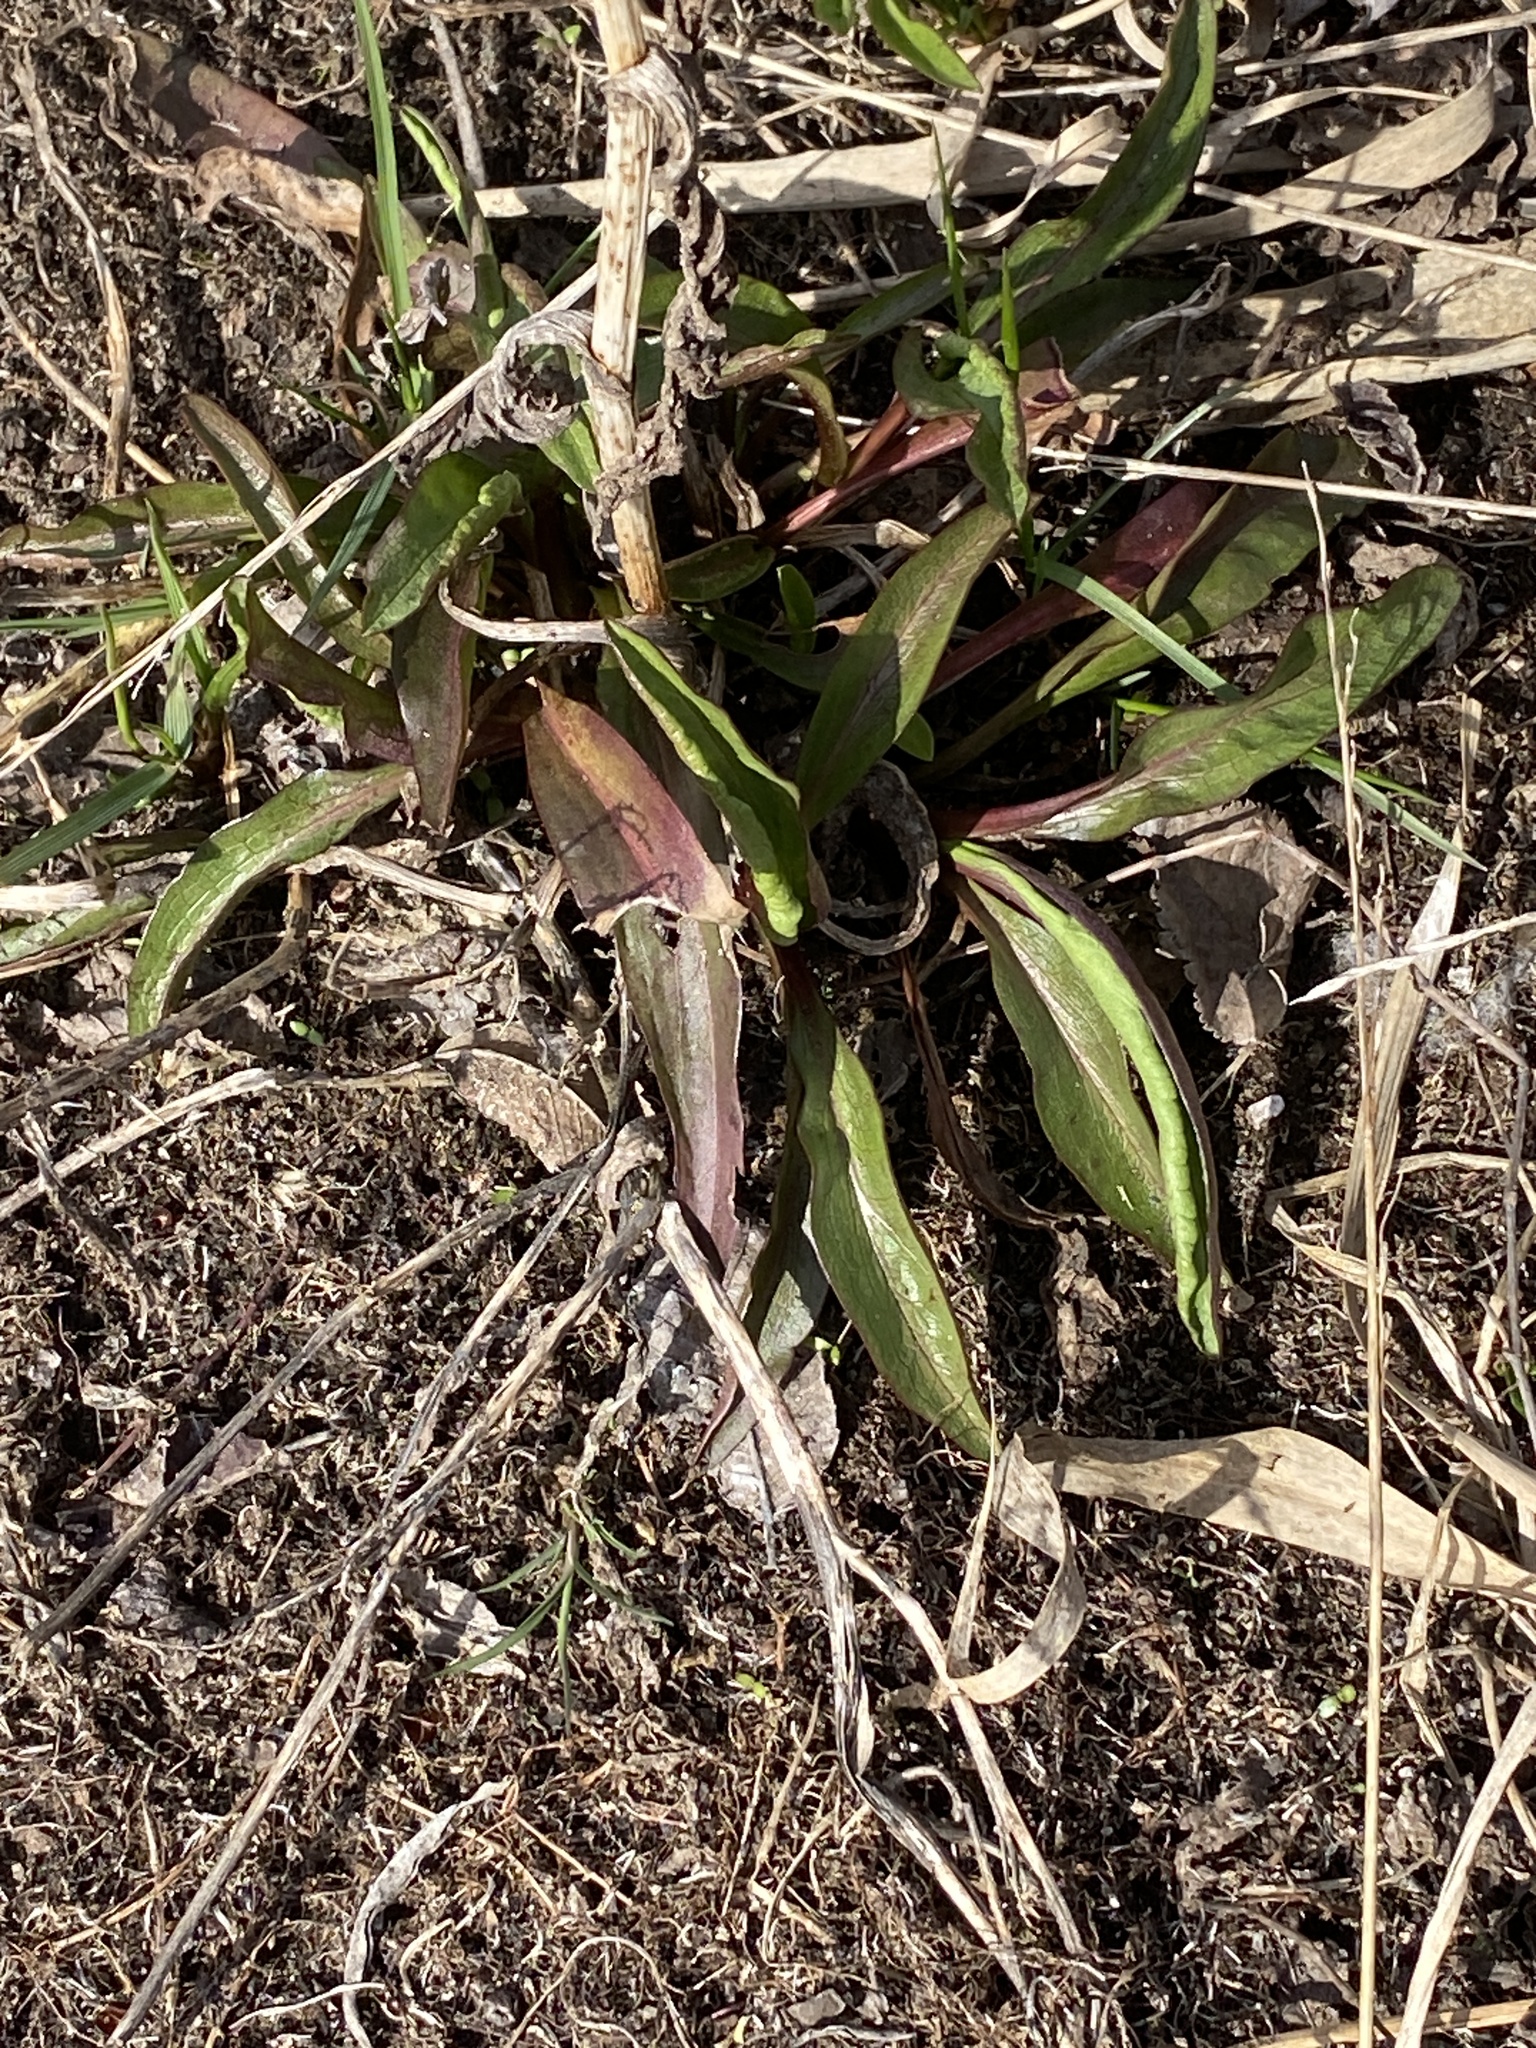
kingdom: Plantae
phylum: Tracheophyta
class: Magnoliopsida
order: Asterales
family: Asteraceae
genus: Solidago
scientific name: Solidago sempervirens
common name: Salt-marsh goldenrod
